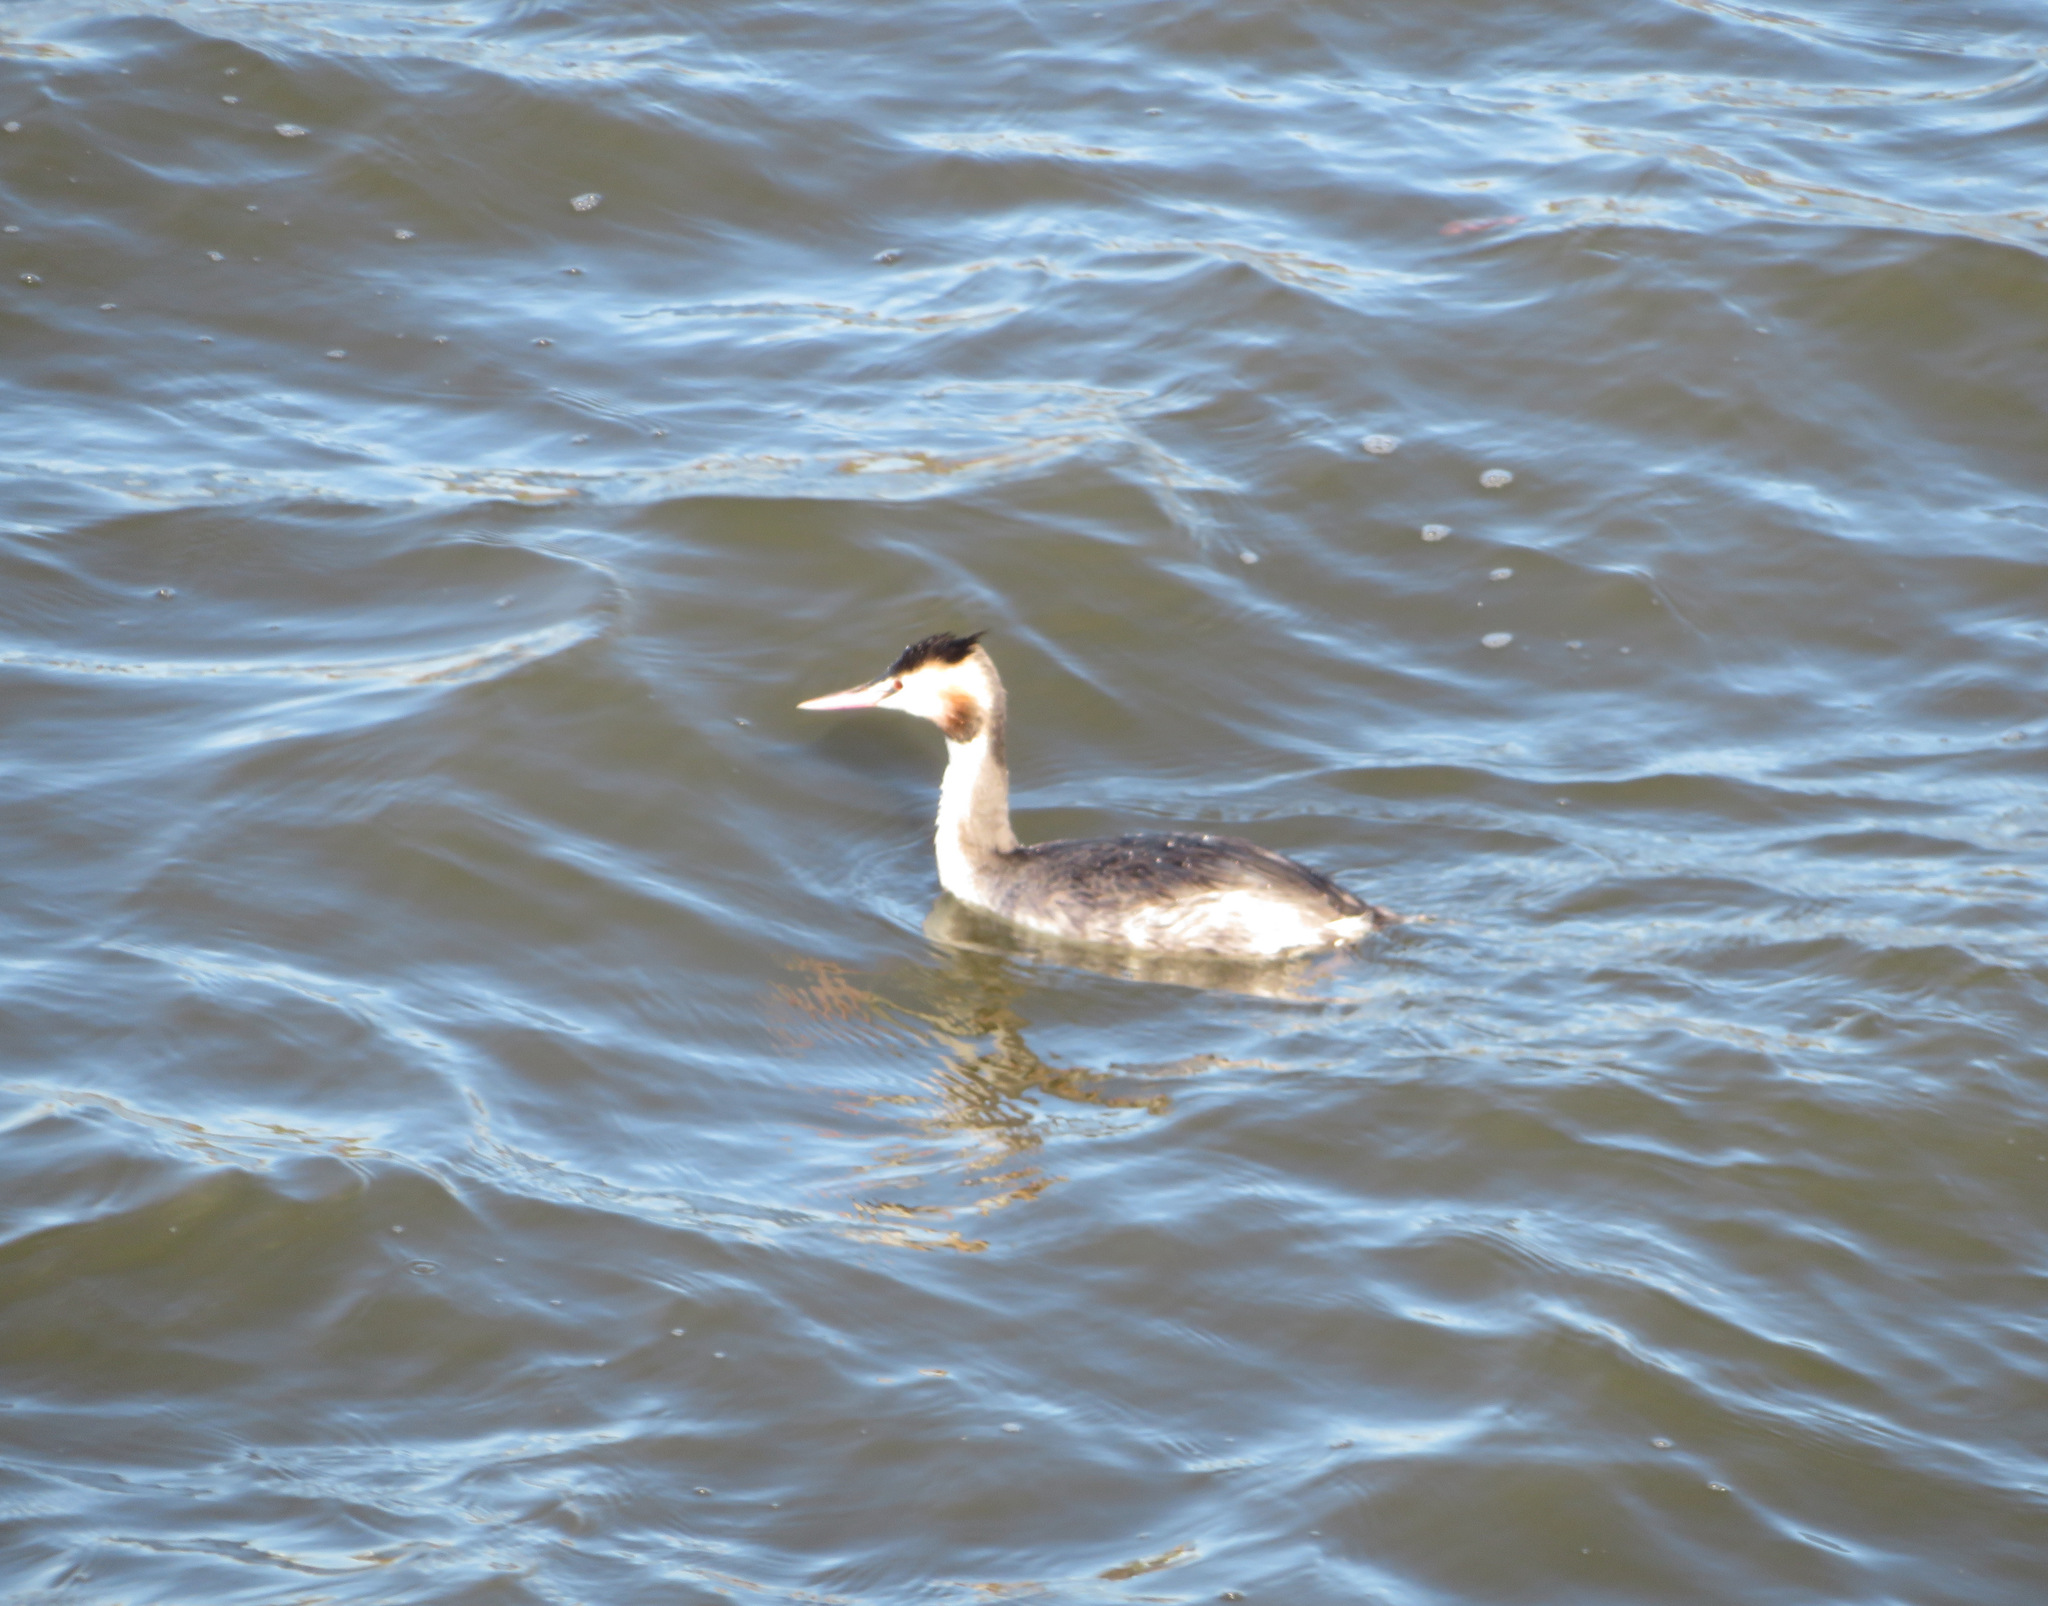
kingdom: Animalia
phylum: Chordata
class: Aves
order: Podicipediformes
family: Podicipedidae
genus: Podiceps
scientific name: Podiceps cristatus
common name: Great crested grebe
